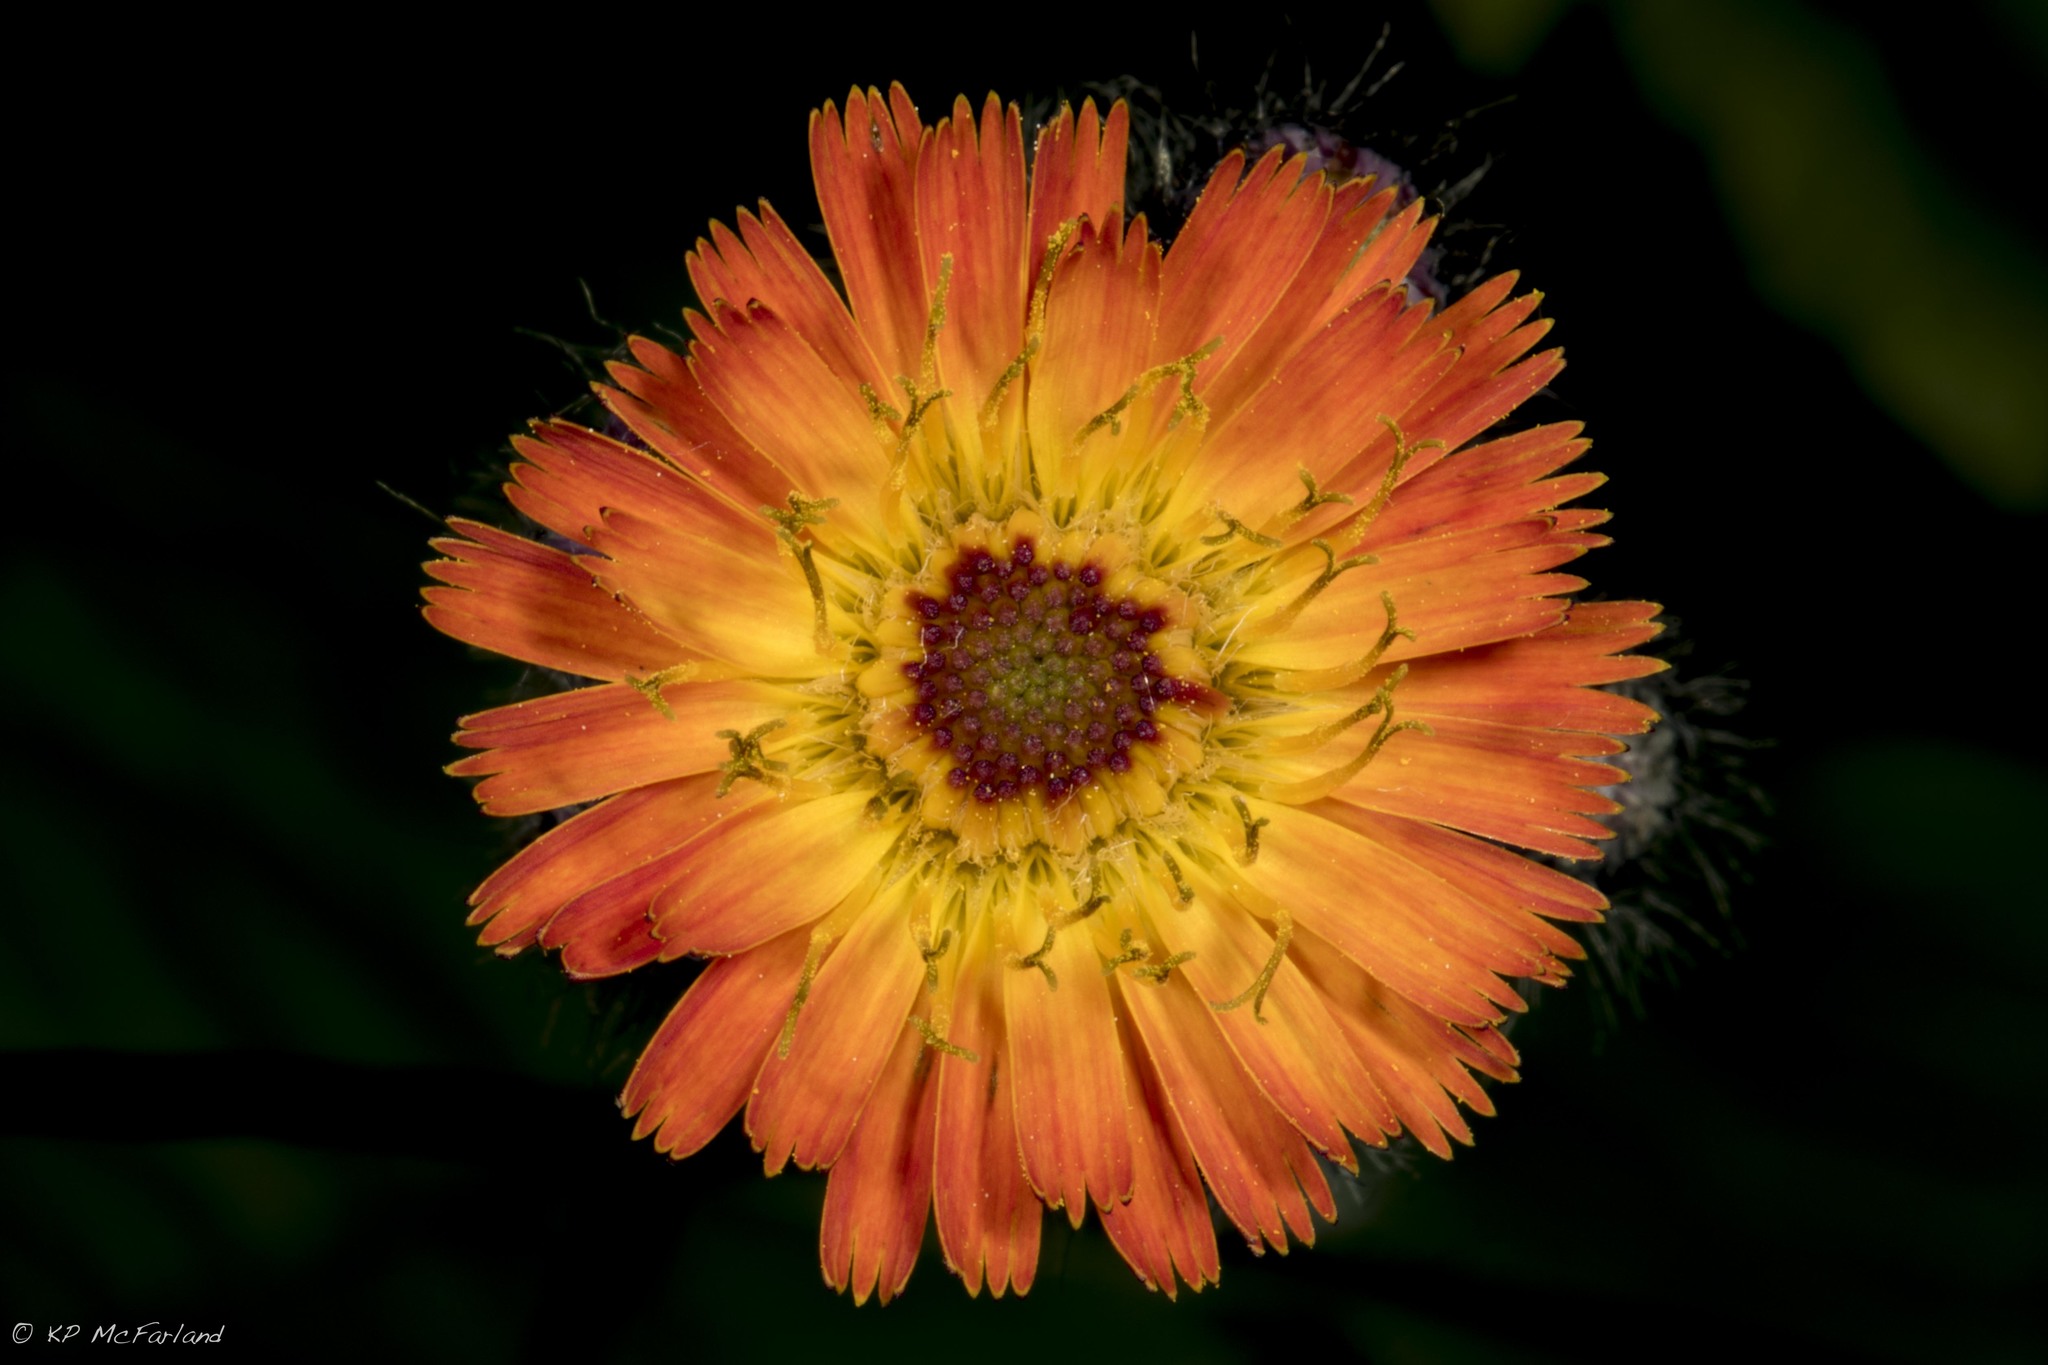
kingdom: Plantae
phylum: Tracheophyta
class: Magnoliopsida
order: Asterales
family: Asteraceae
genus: Pilosella
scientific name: Pilosella aurantiaca
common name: Fox-and-cubs
